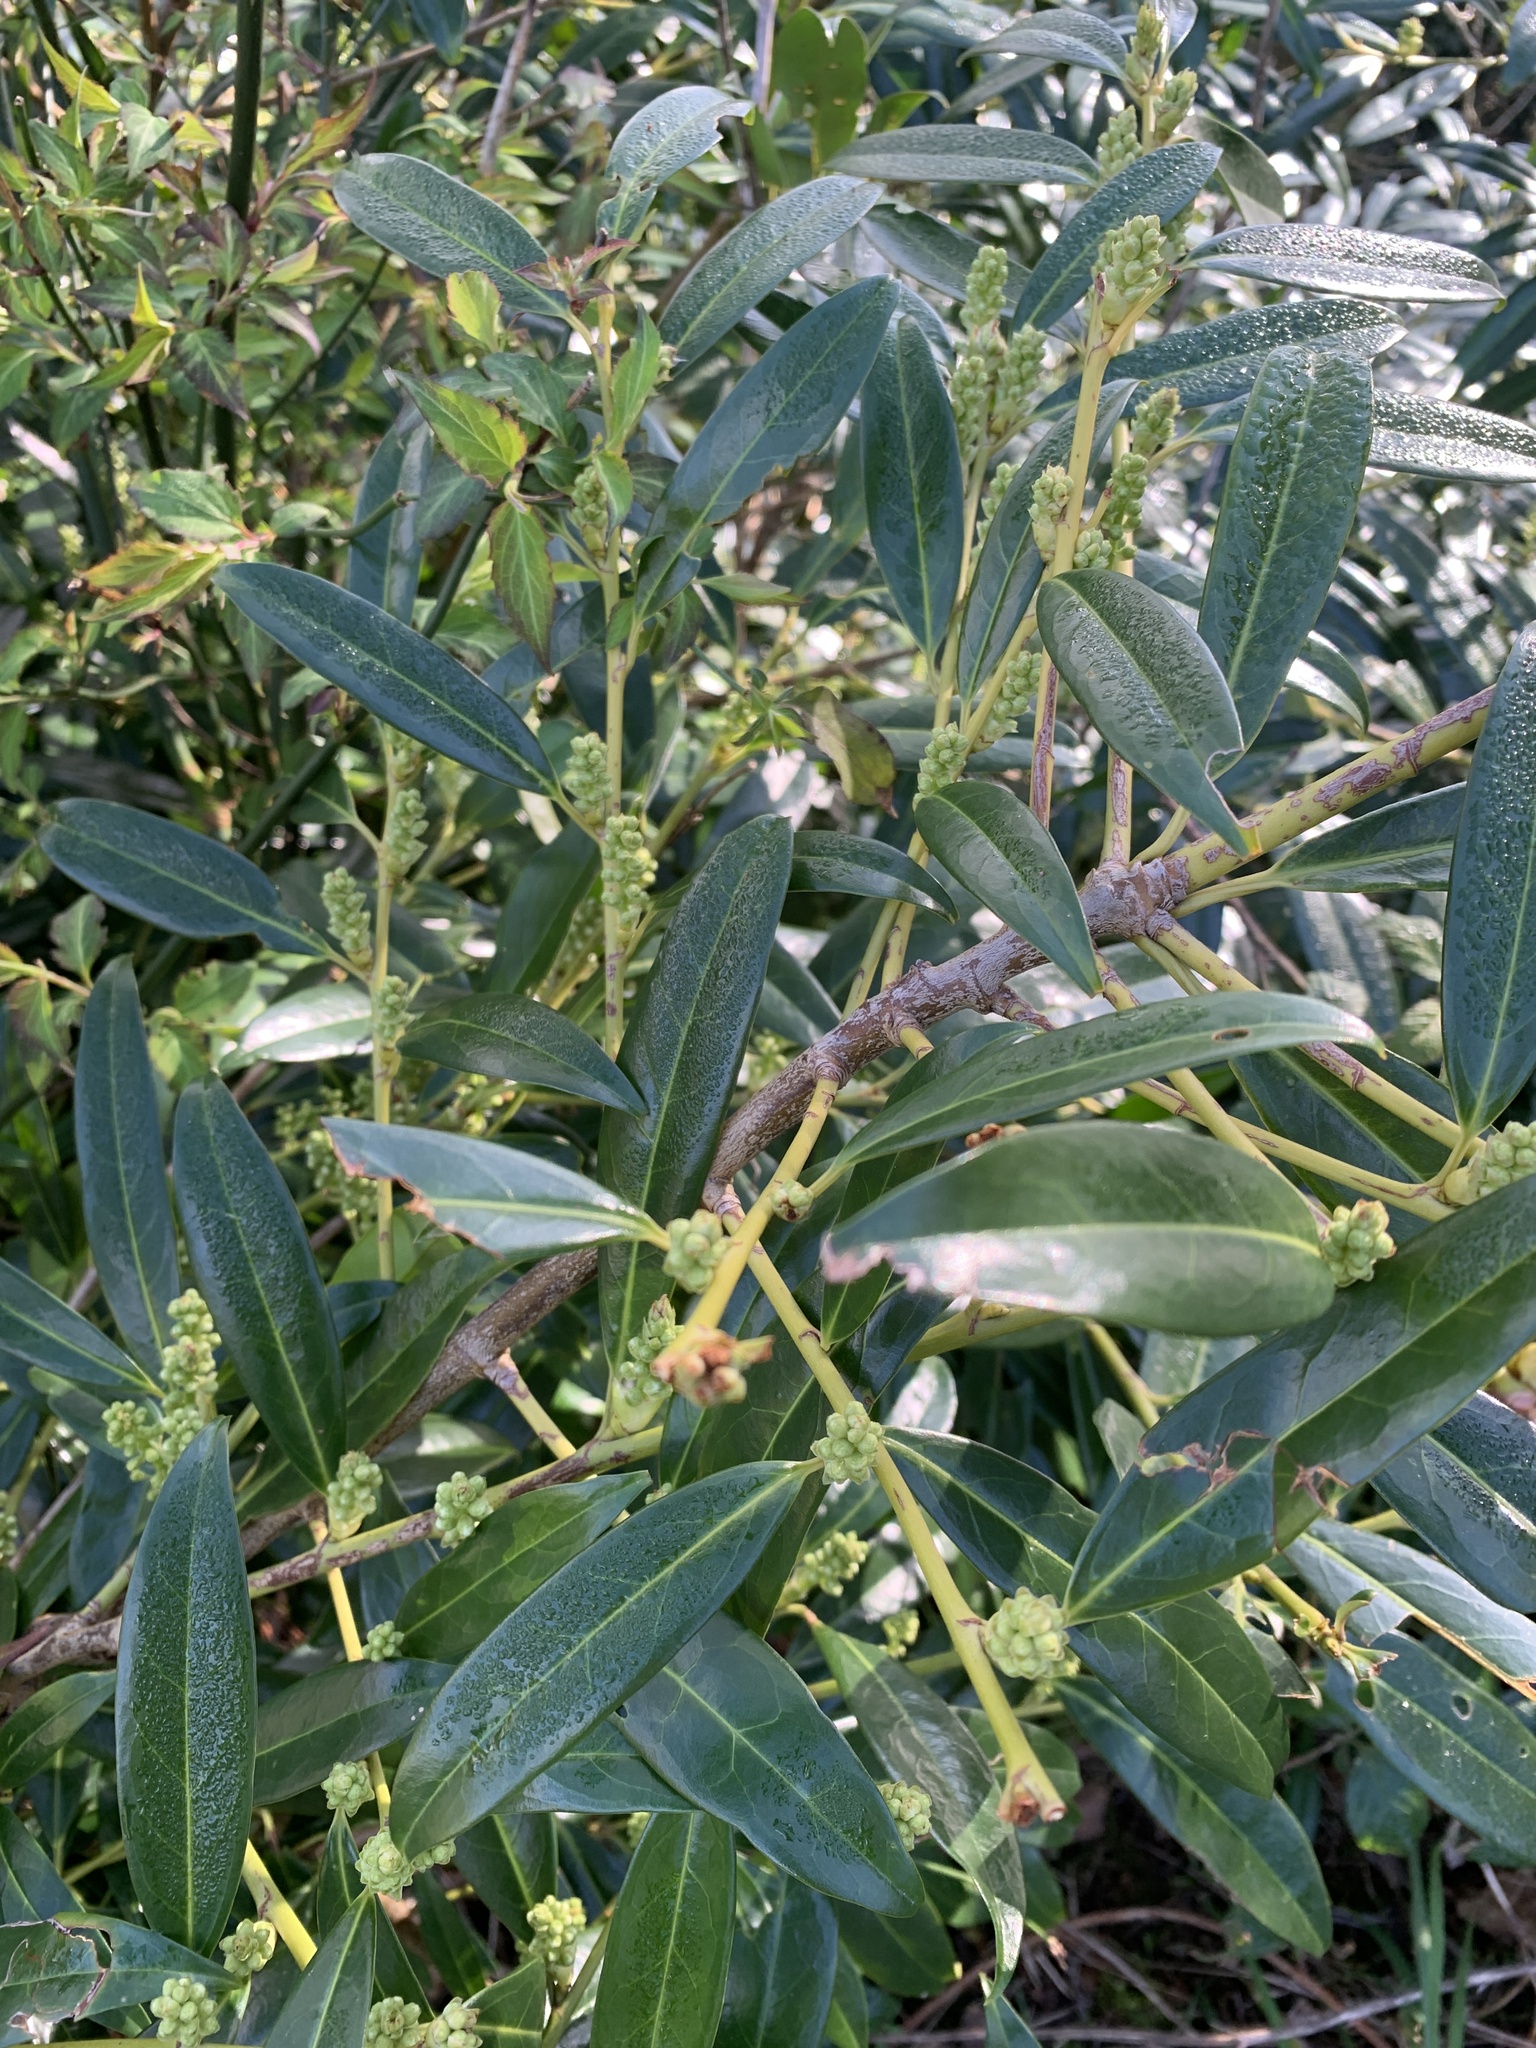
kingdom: Plantae
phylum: Tracheophyta
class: Magnoliopsida
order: Rosales
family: Rosaceae
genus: Prunus
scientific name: Prunus laurocerasus
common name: Cherry laurel
